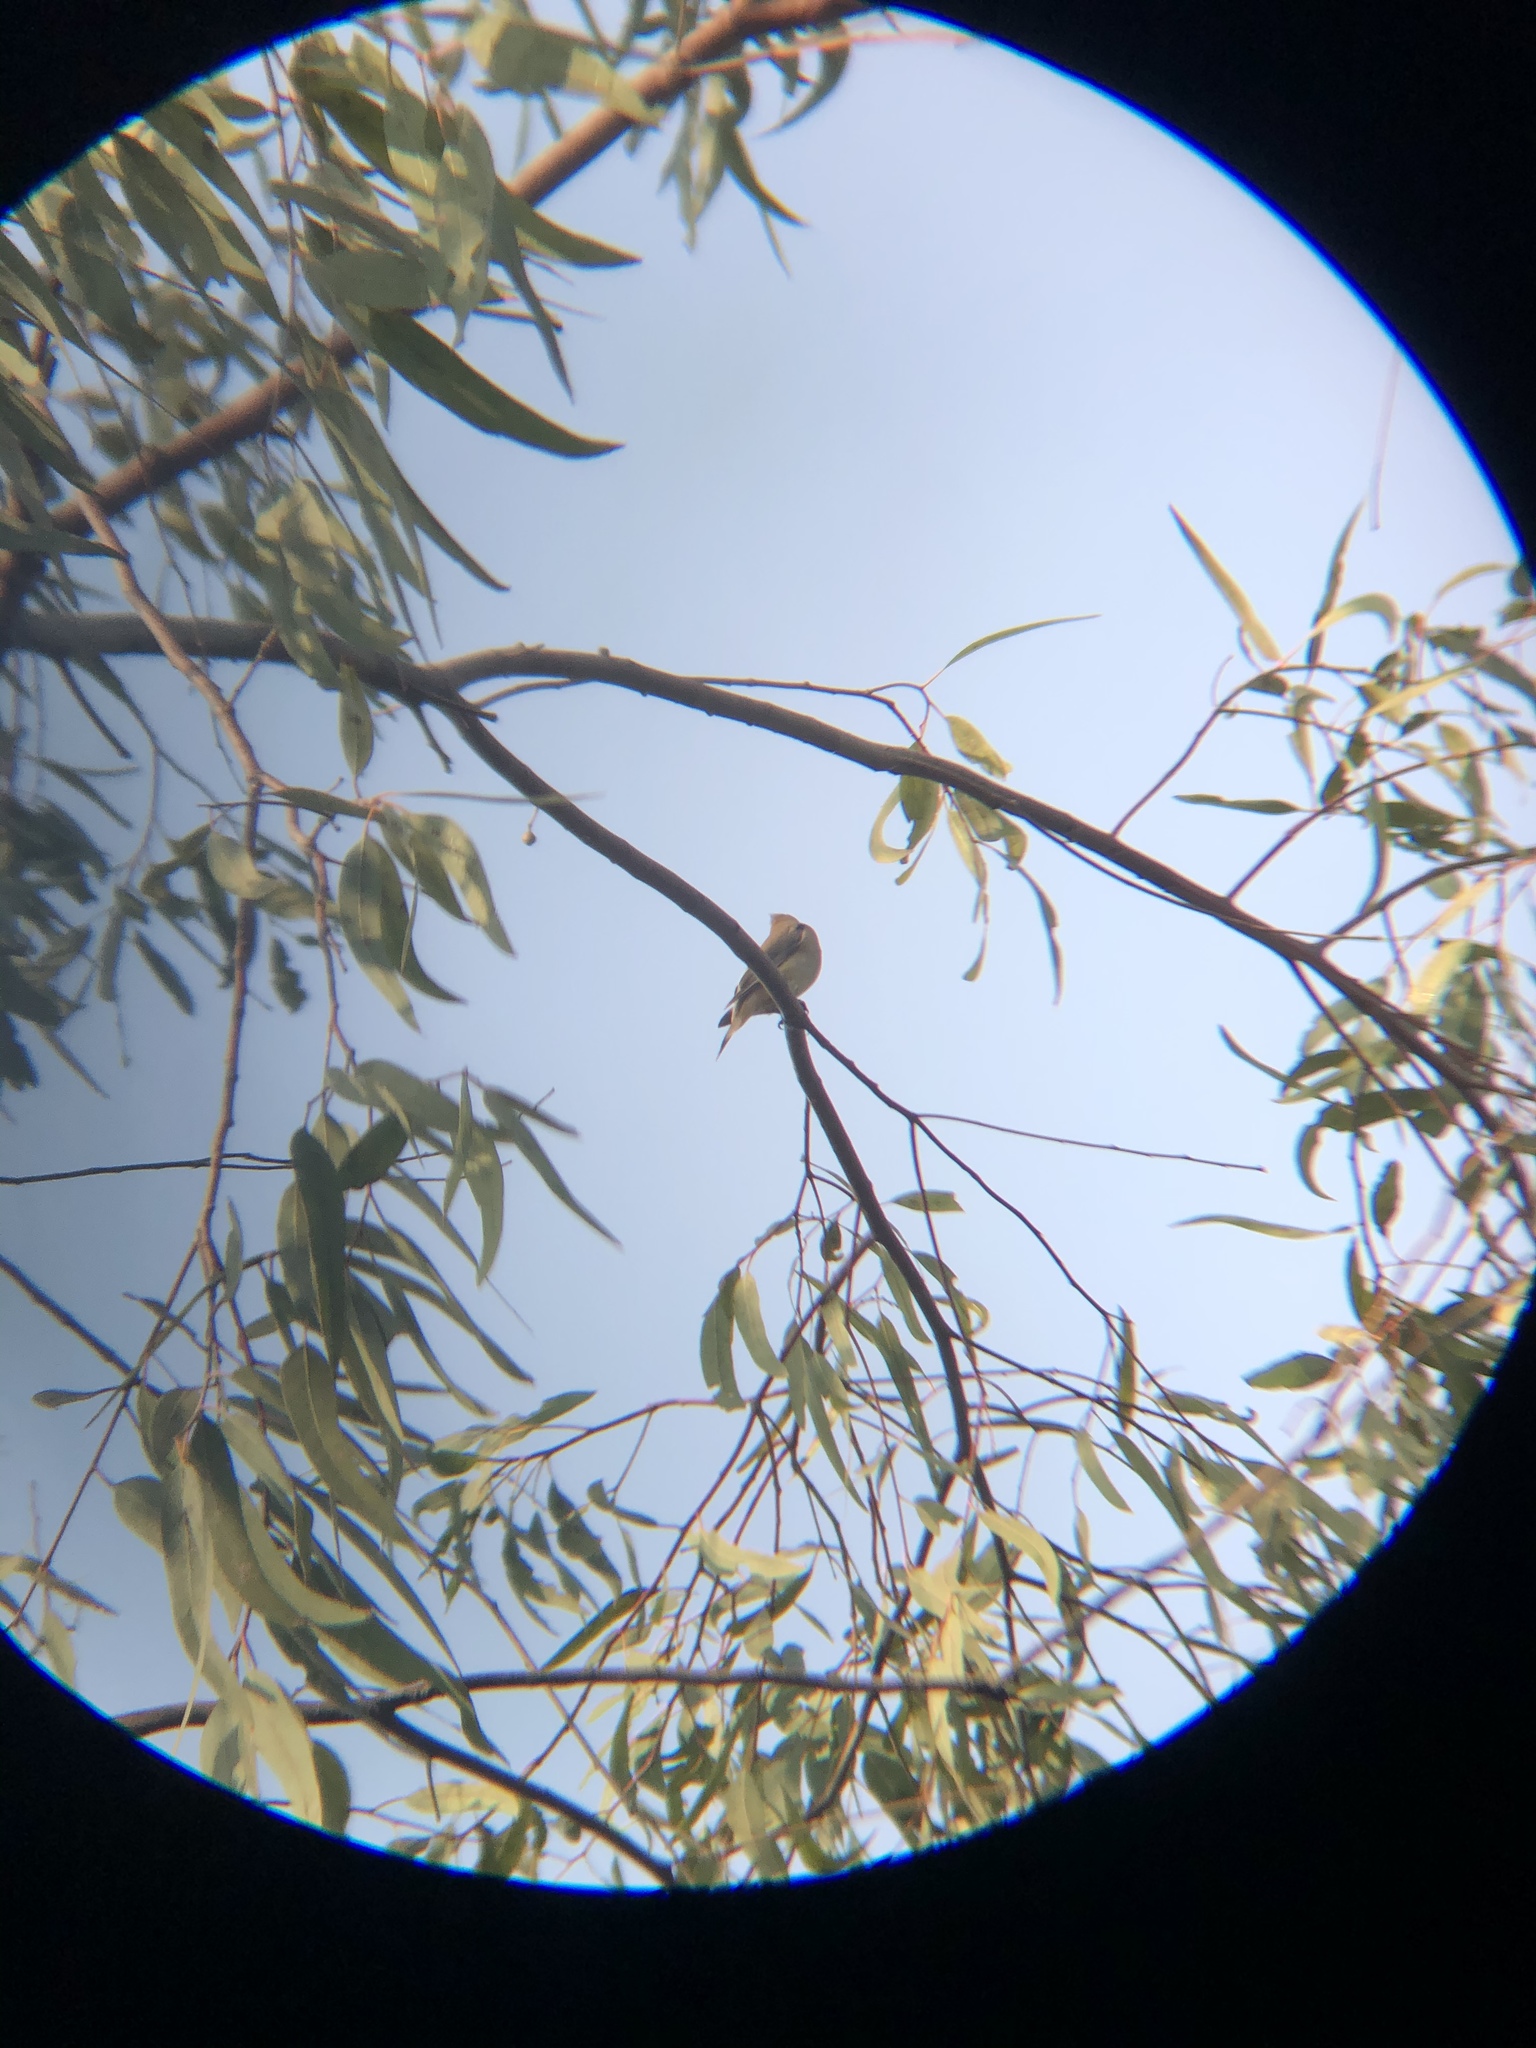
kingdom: Animalia
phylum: Chordata
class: Aves
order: Passeriformes
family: Bombycillidae
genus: Bombycilla
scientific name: Bombycilla cedrorum
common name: Cedar waxwing
